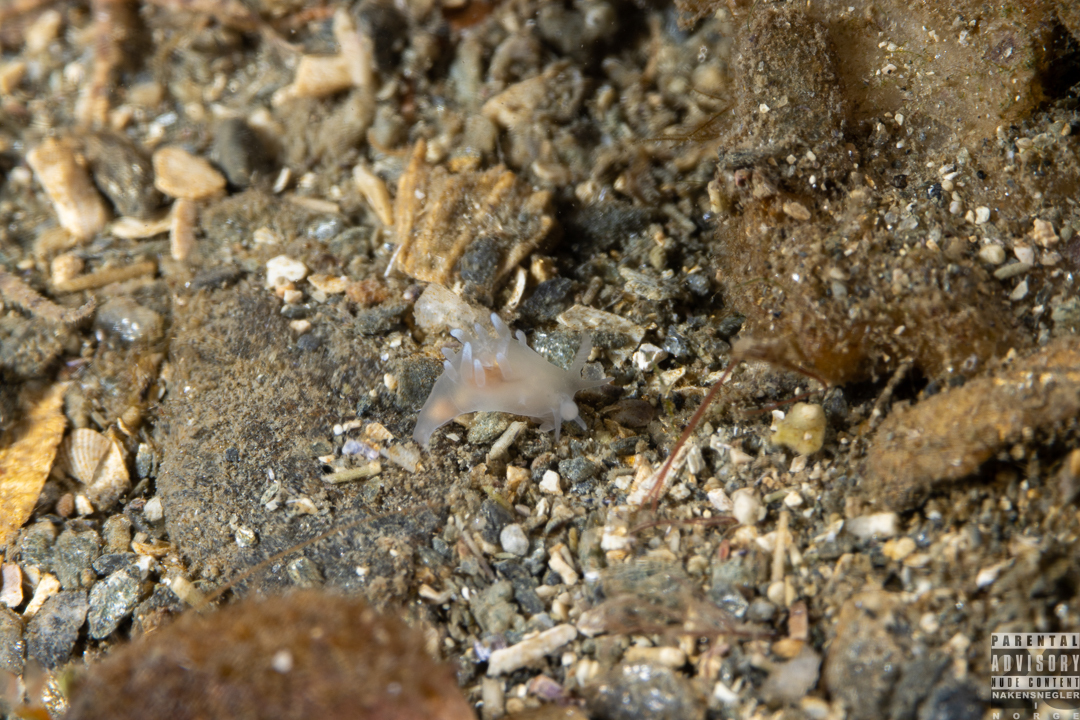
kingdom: Animalia
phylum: Mollusca
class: Gastropoda
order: Nudibranchia
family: Goniodorididae
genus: Ancula
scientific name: Ancula gibbosa
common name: Atlantic ancula
